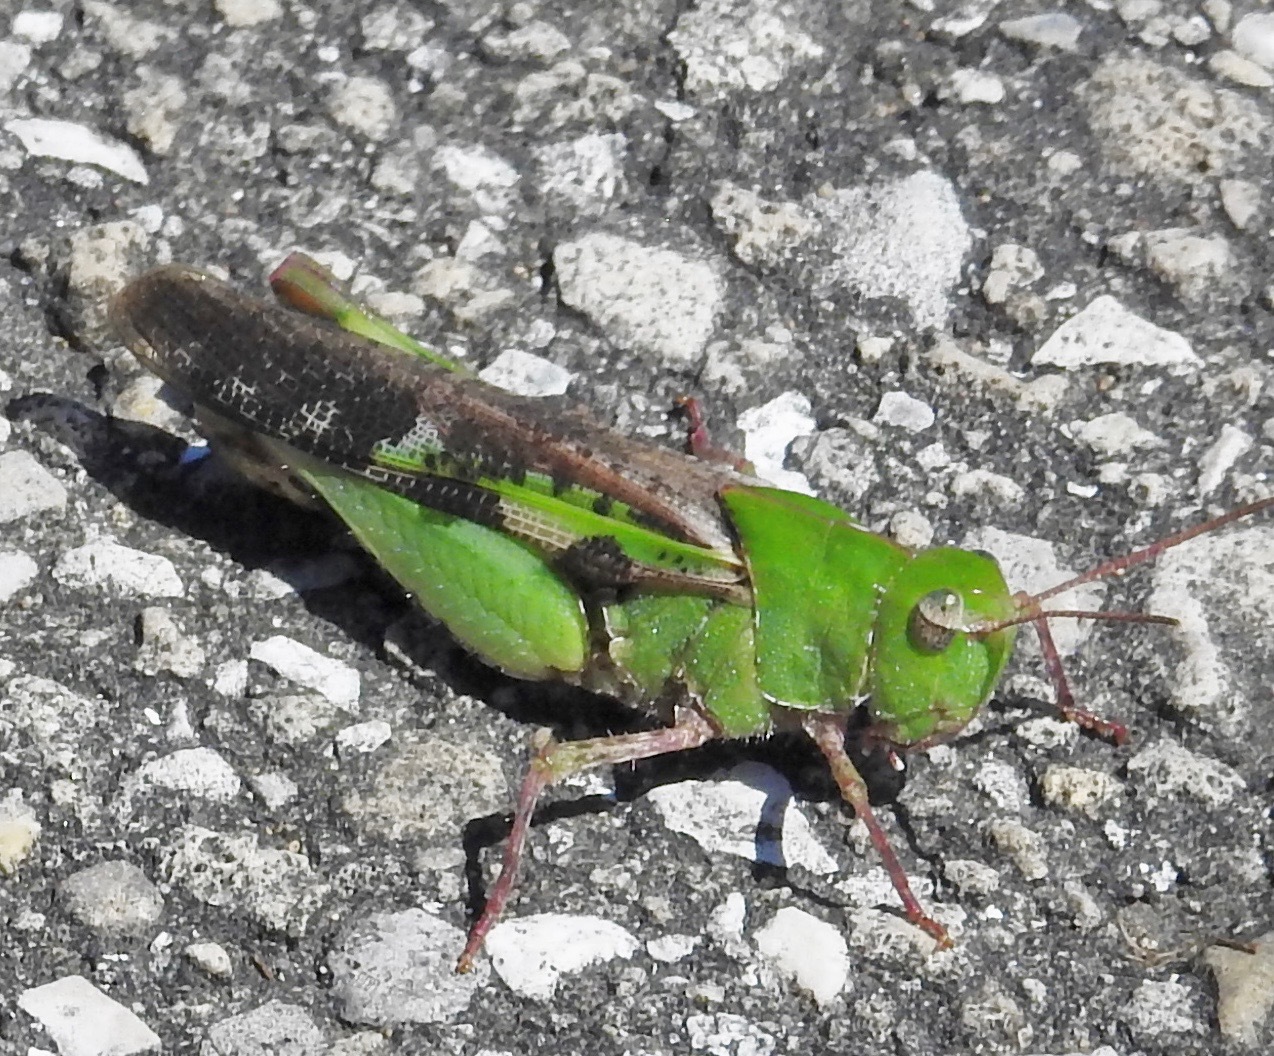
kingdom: Animalia
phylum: Arthropoda
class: Insecta
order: Orthoptera
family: Acrididae
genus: Chortophaga
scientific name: Chortophaga australior
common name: Southern green-striped grasshopper
